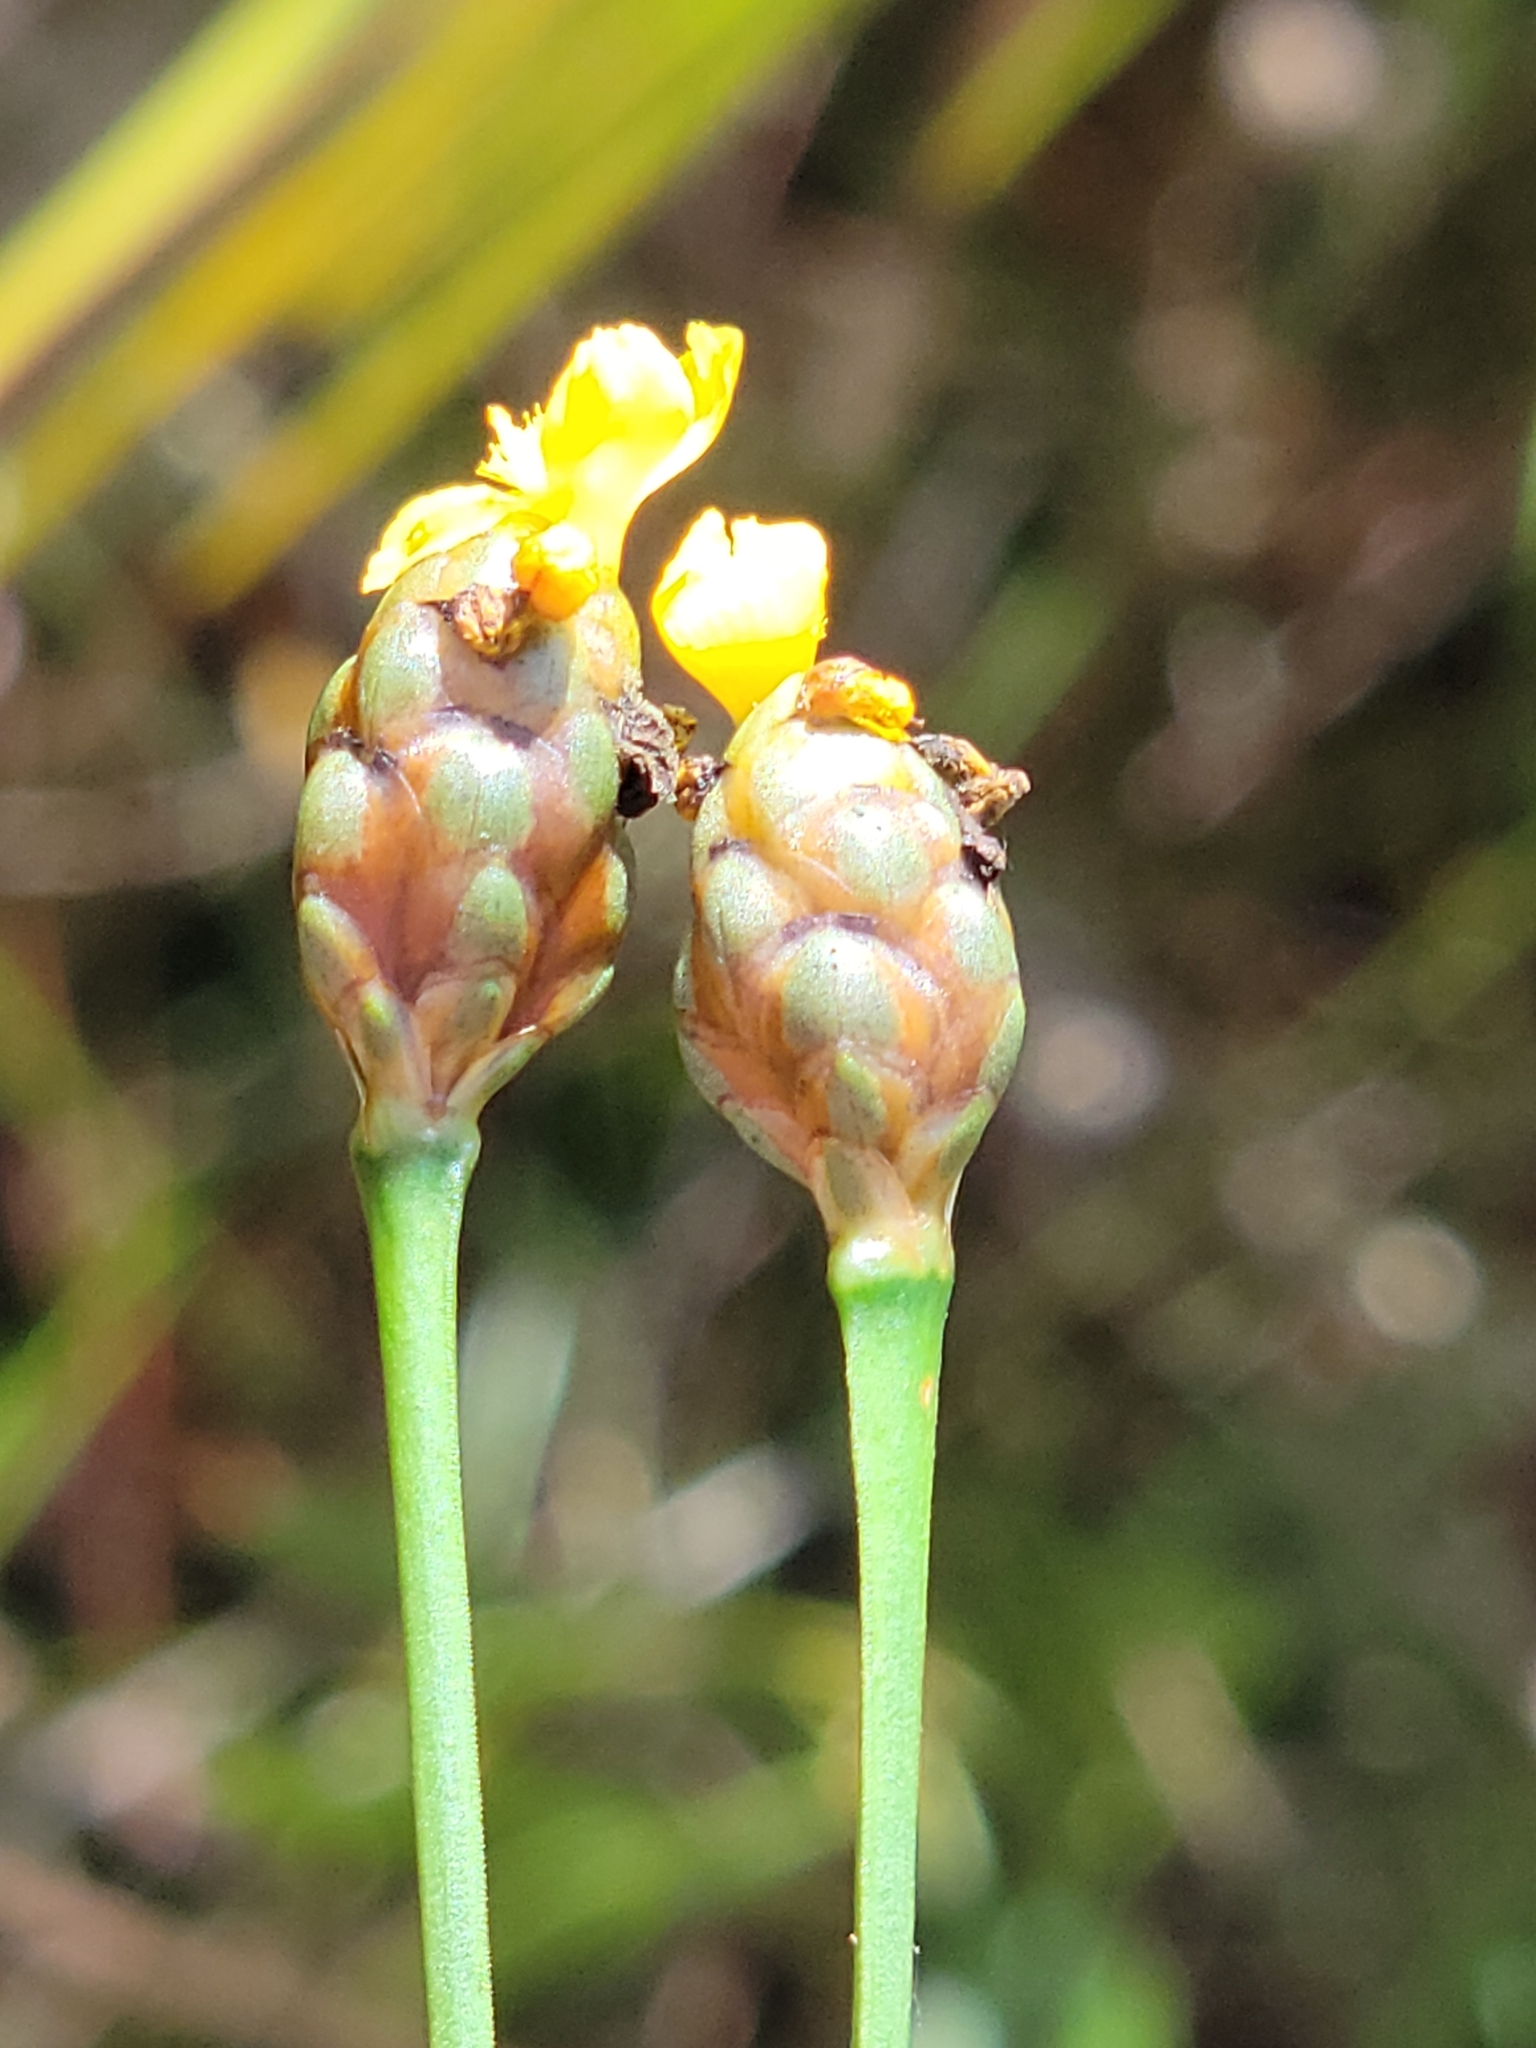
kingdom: Plantae
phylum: Tracheophyta
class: Liliopsida
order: Poales
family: Xyridaceae
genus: Xyris
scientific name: Xyris jupicai
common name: Richard's yelloweyed grass
